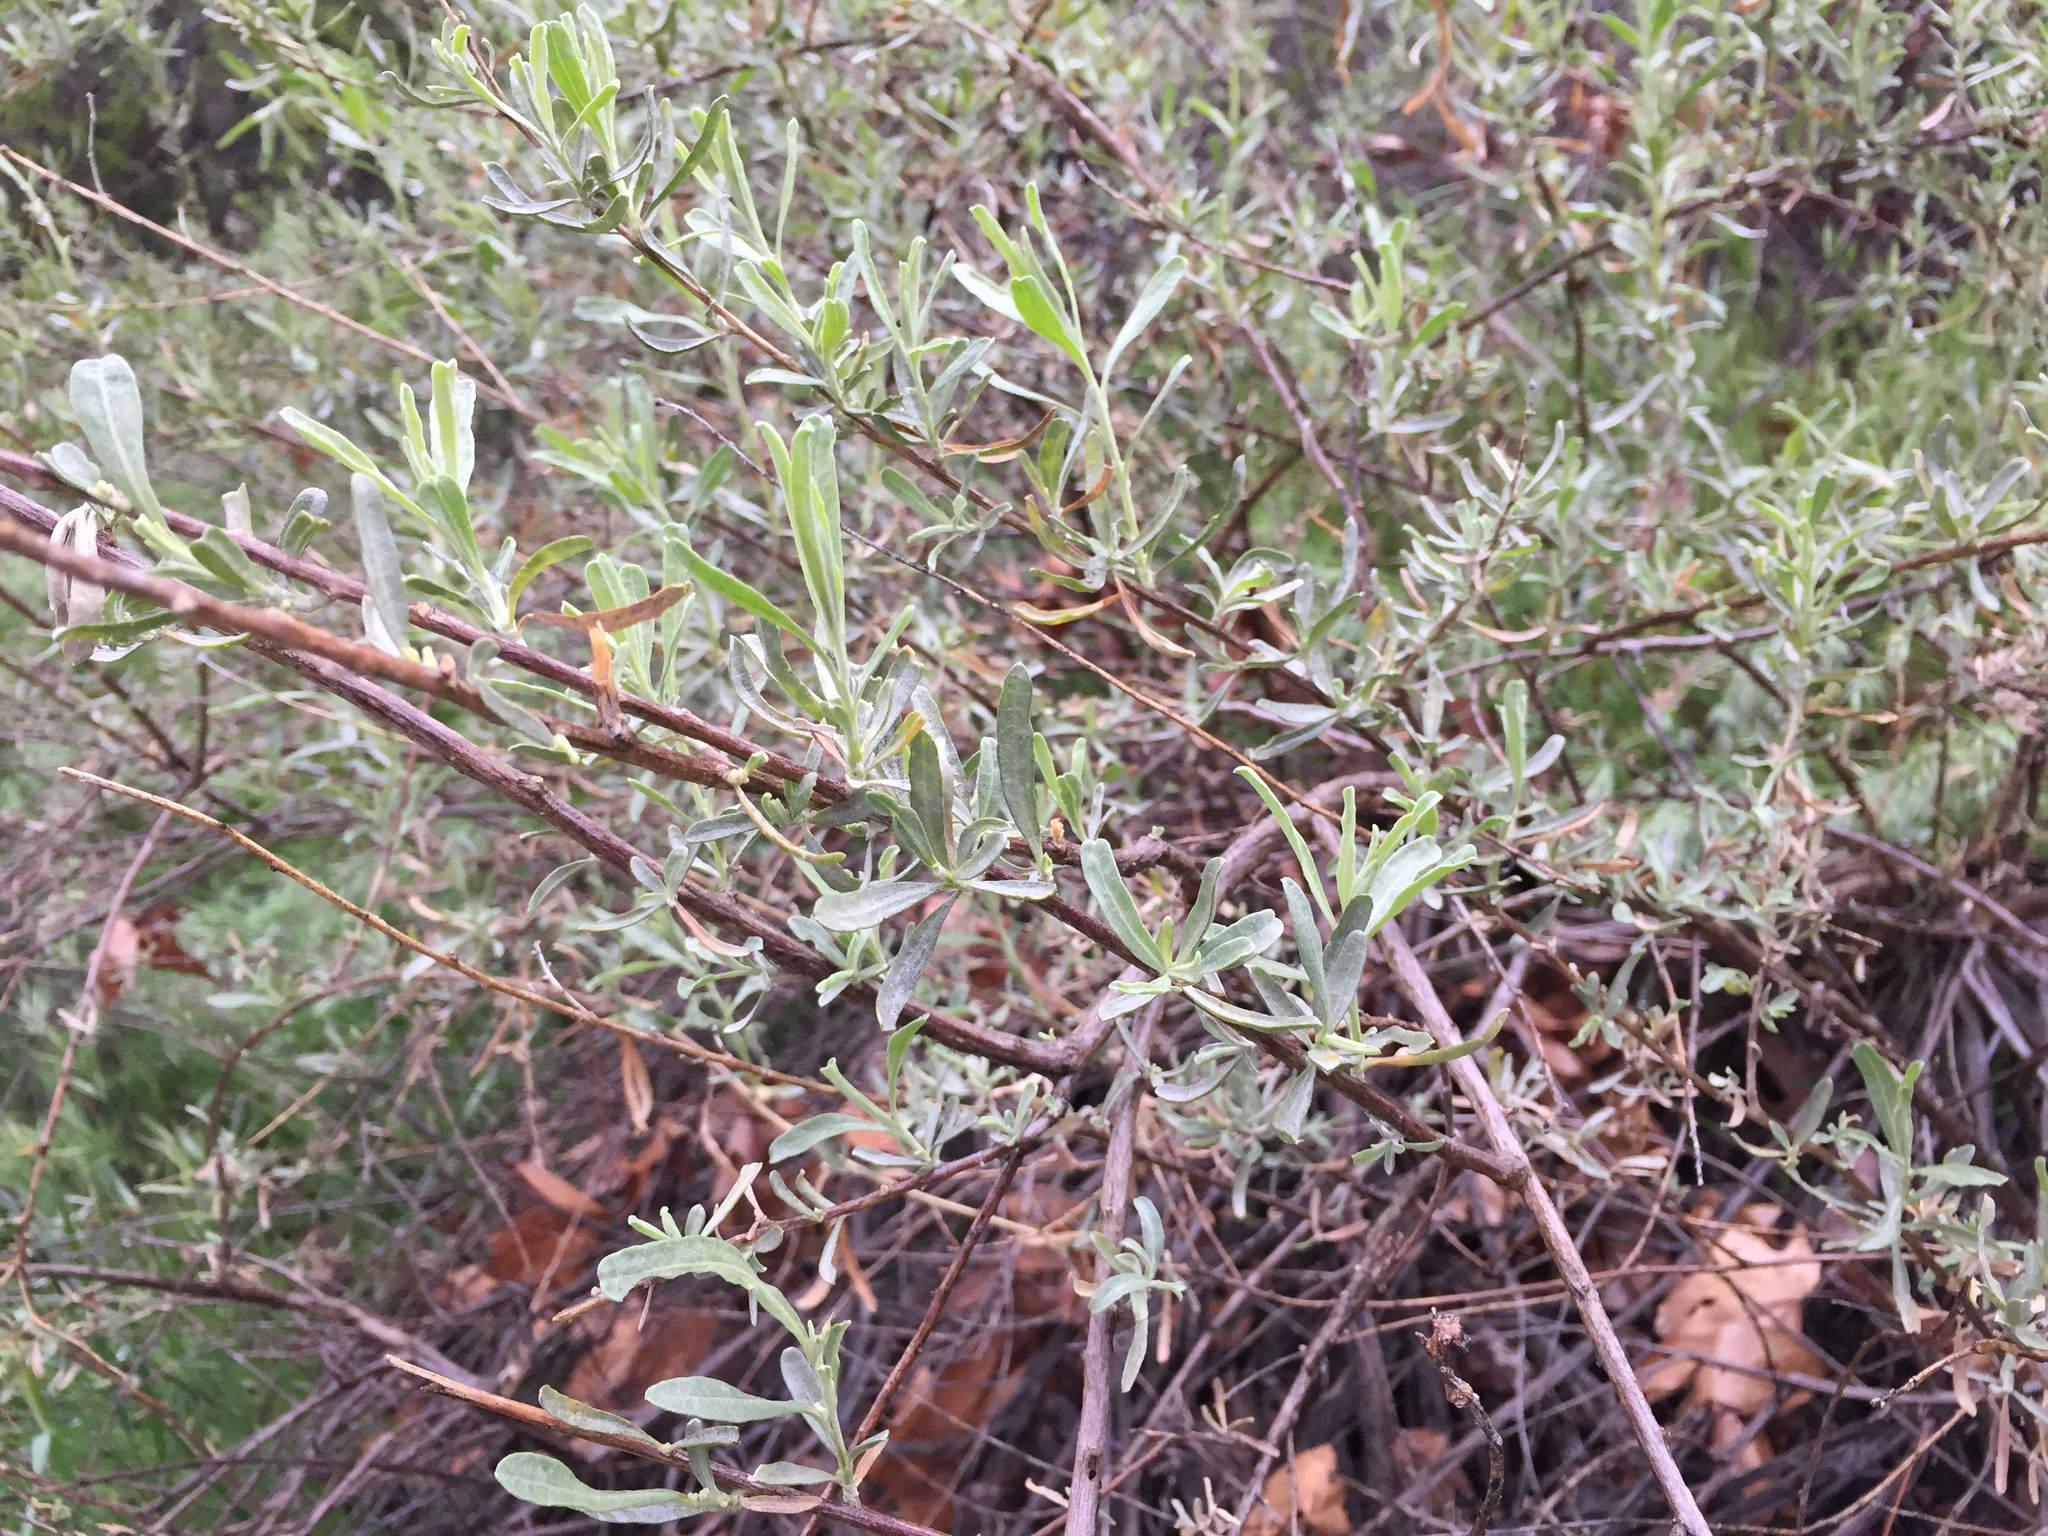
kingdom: Plantae
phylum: Tracheophyta
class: Magnoliopsida
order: Caryophyllales
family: Amaranthaceae
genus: Atriplex
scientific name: Atriplex canescens
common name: Four-wing saltbush
